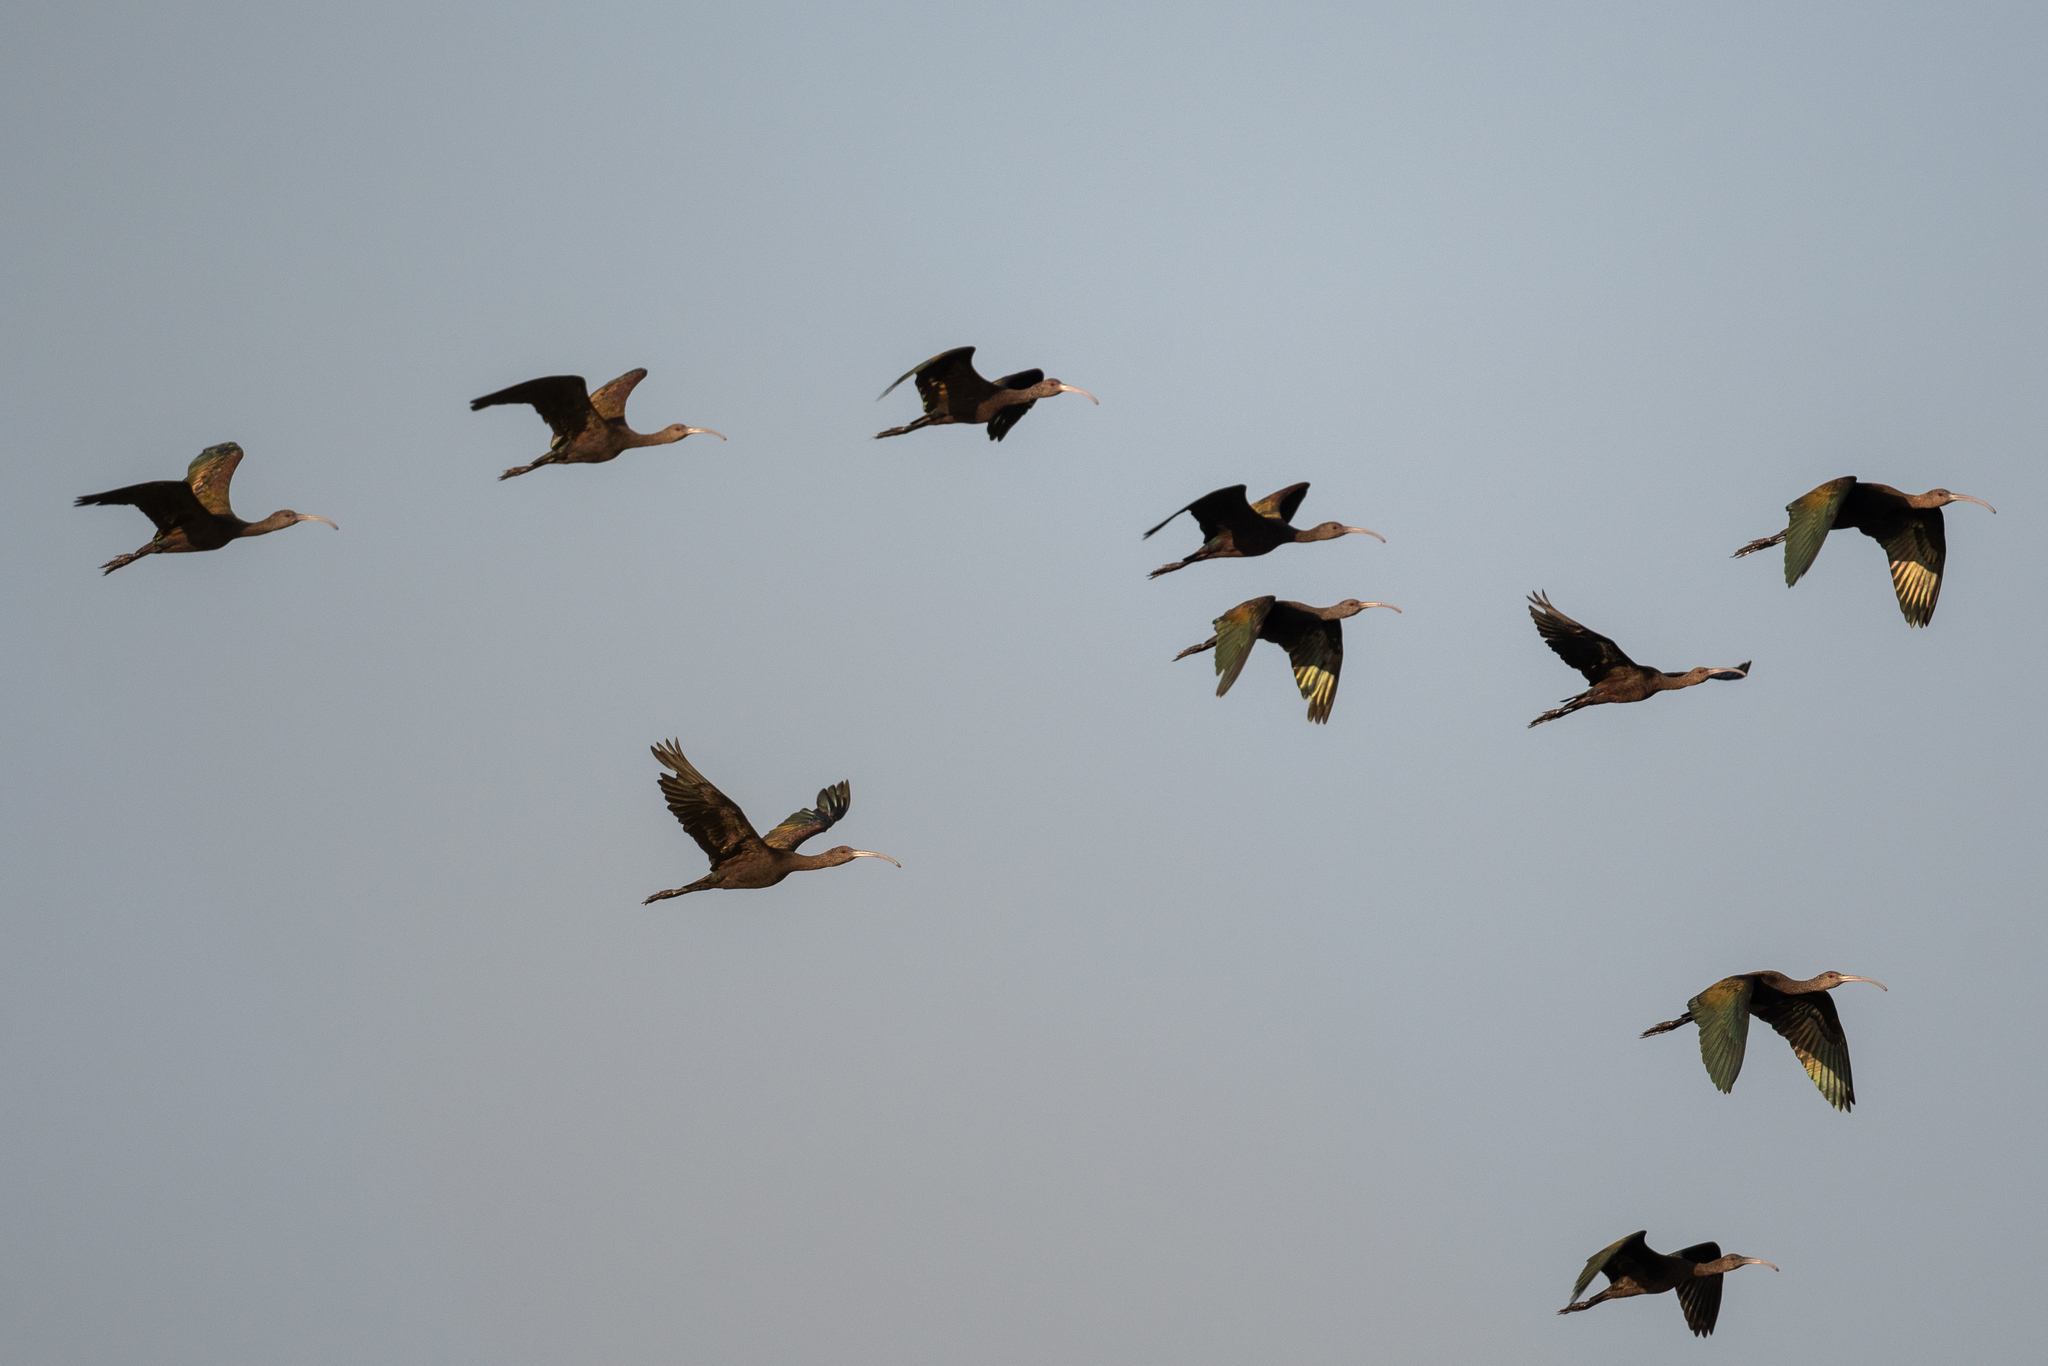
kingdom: Animalia
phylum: Chordata
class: Aves
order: Pelecaniformes
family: Threskiornithidae
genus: Plegadis
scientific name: Plegadis chihi
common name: White-faced ibis
